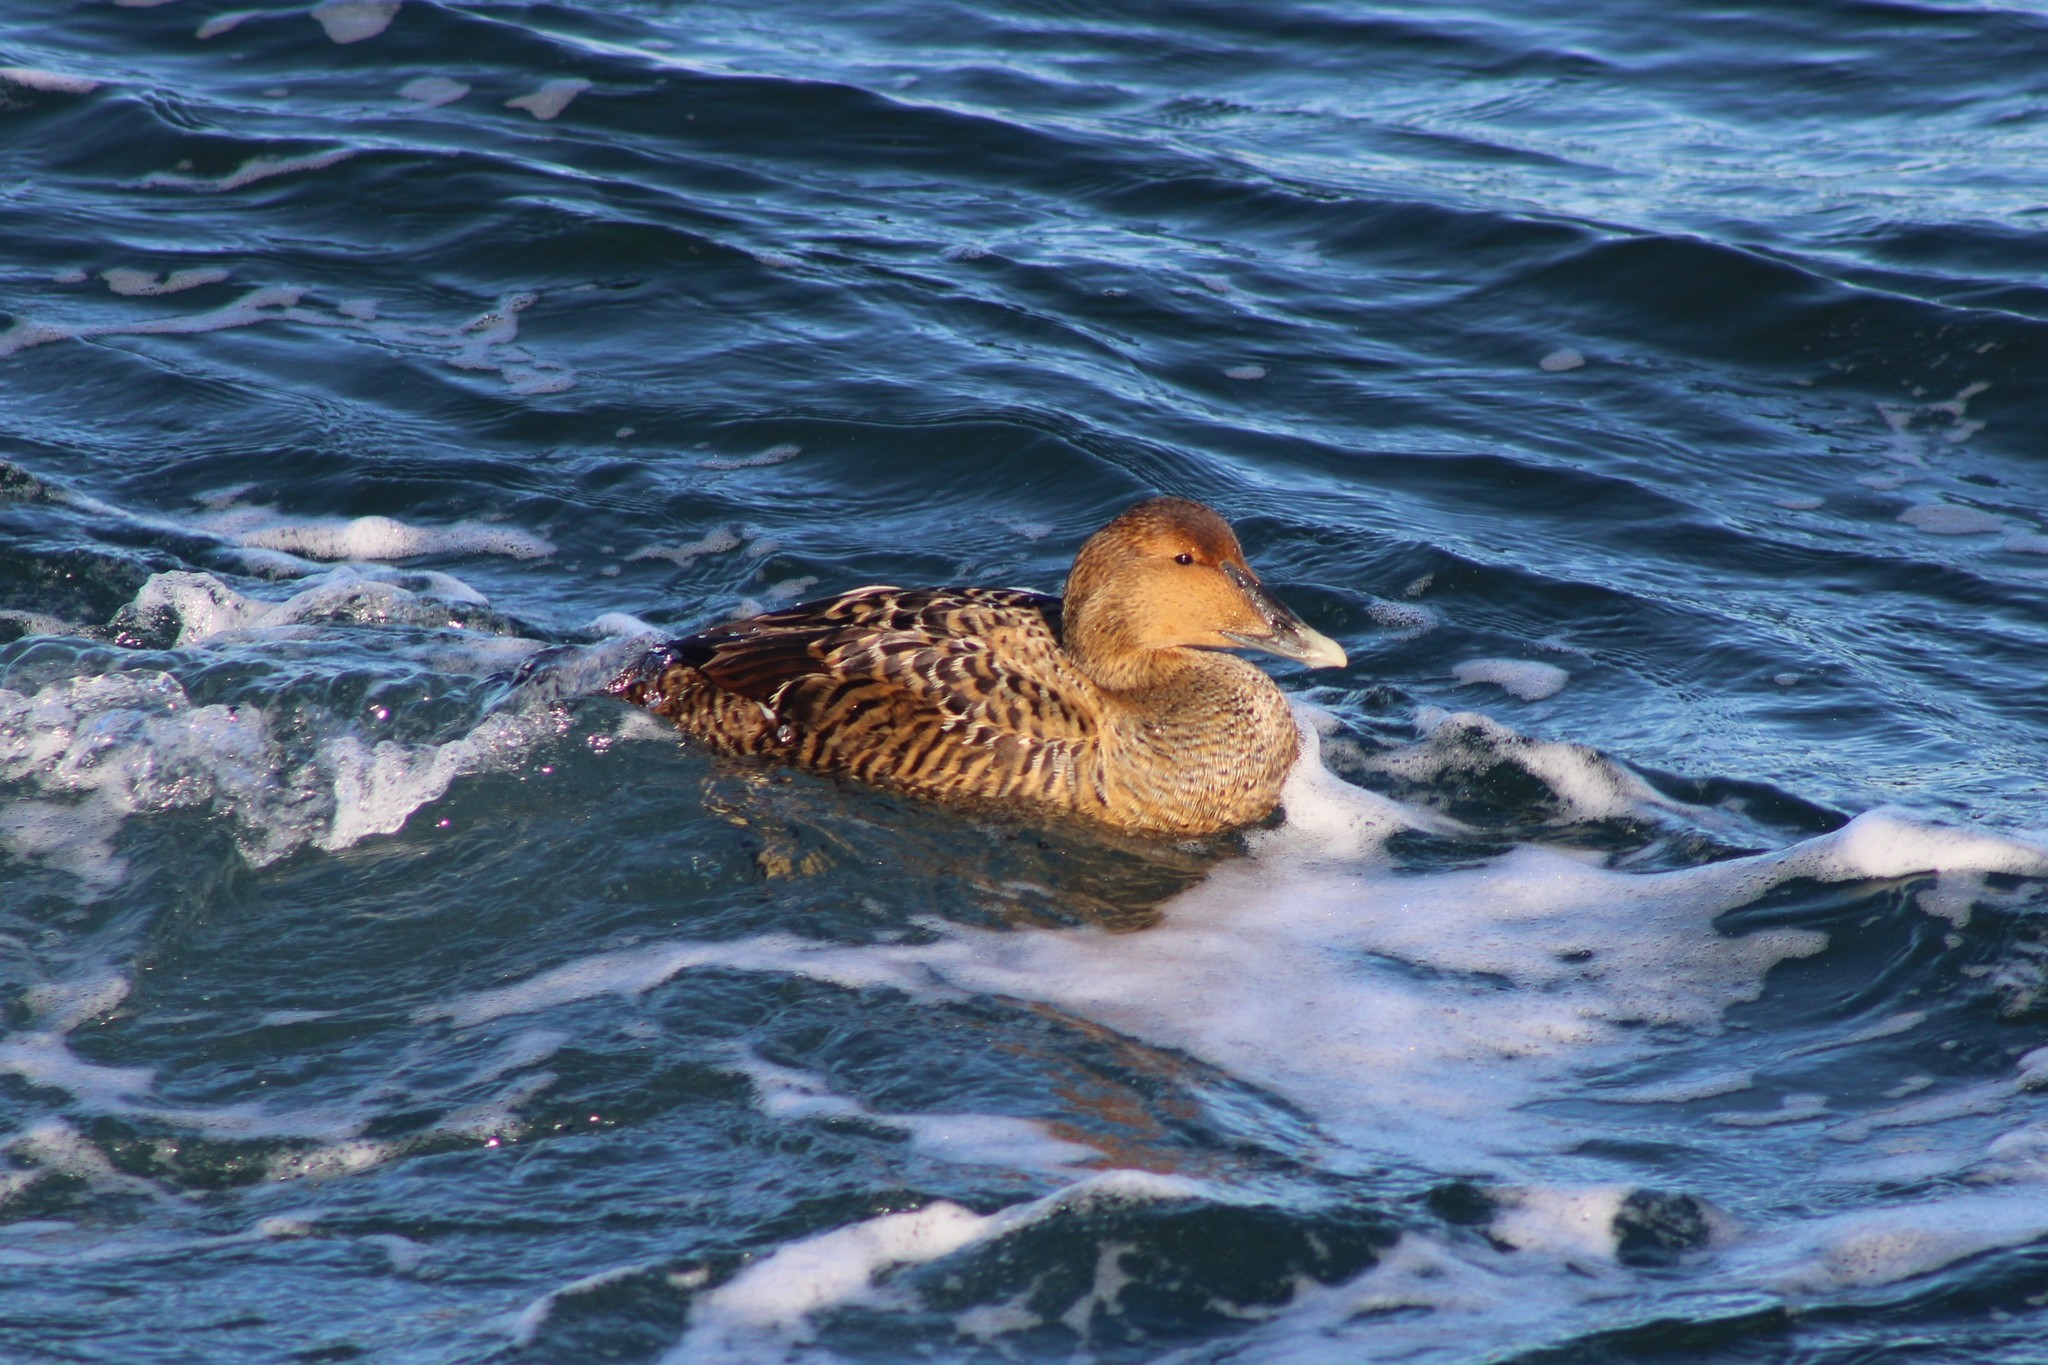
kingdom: Animalia
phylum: Chordata
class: Aves
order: Anseriformes
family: Anatidae
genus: Somateria
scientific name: Somateria mollissima
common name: Common eider
